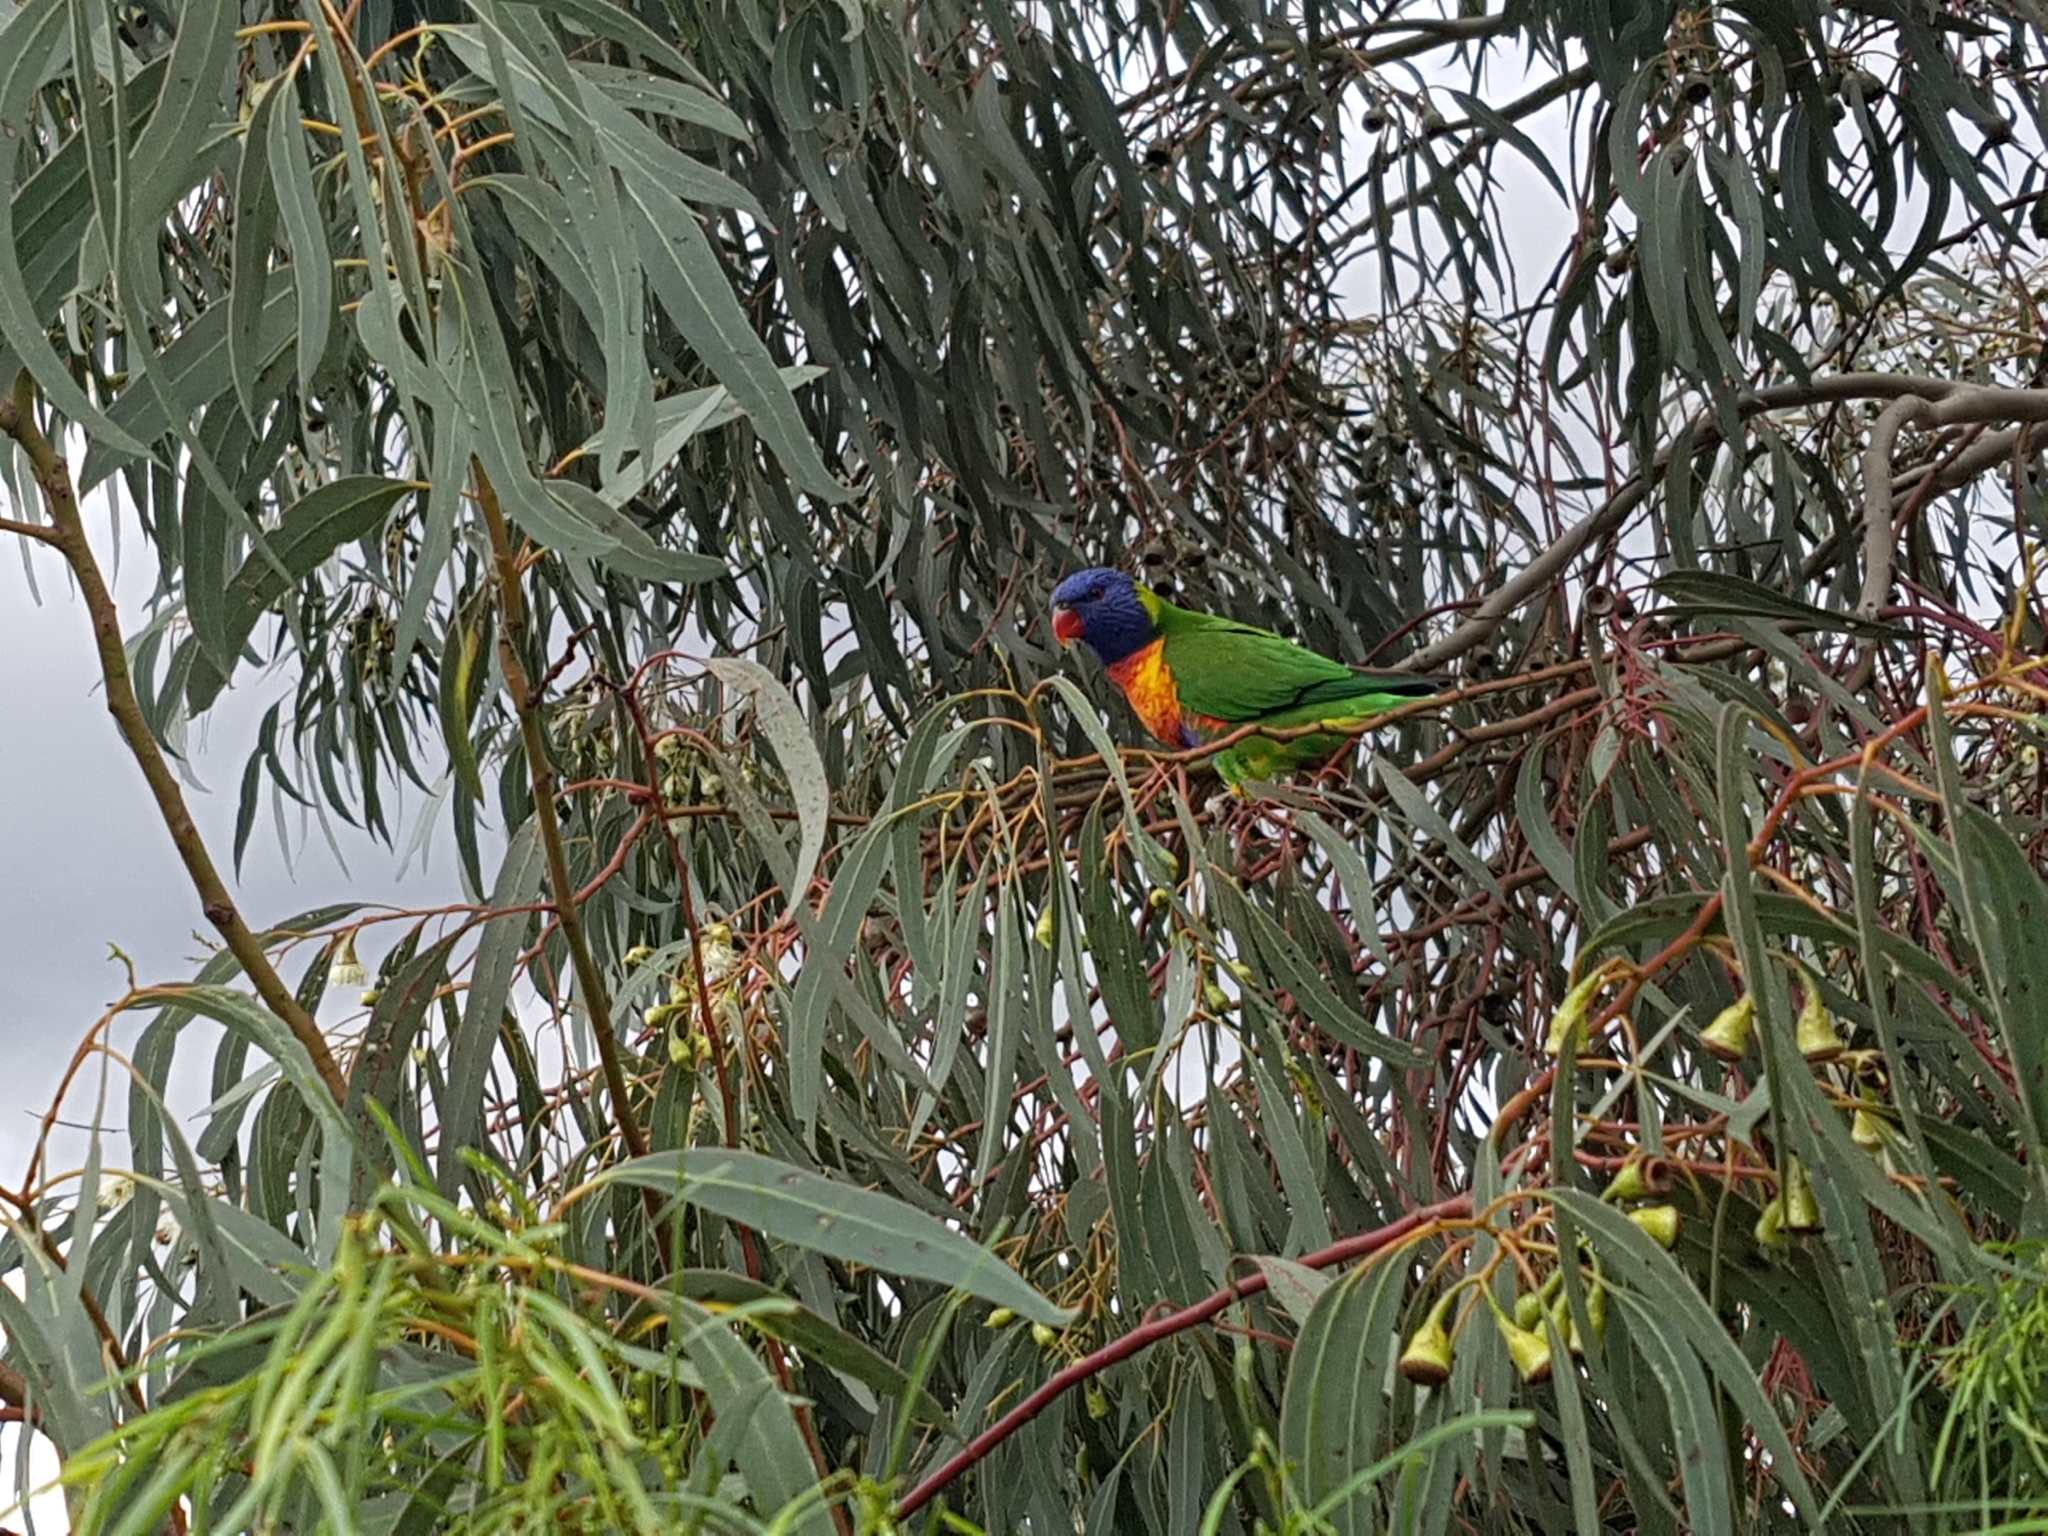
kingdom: Animalia
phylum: Chordata
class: Aves
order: Psittaciformes
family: Psittacidae
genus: Trichoglossus
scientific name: Trichoglossus haematodus
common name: Coconut lorikeet
